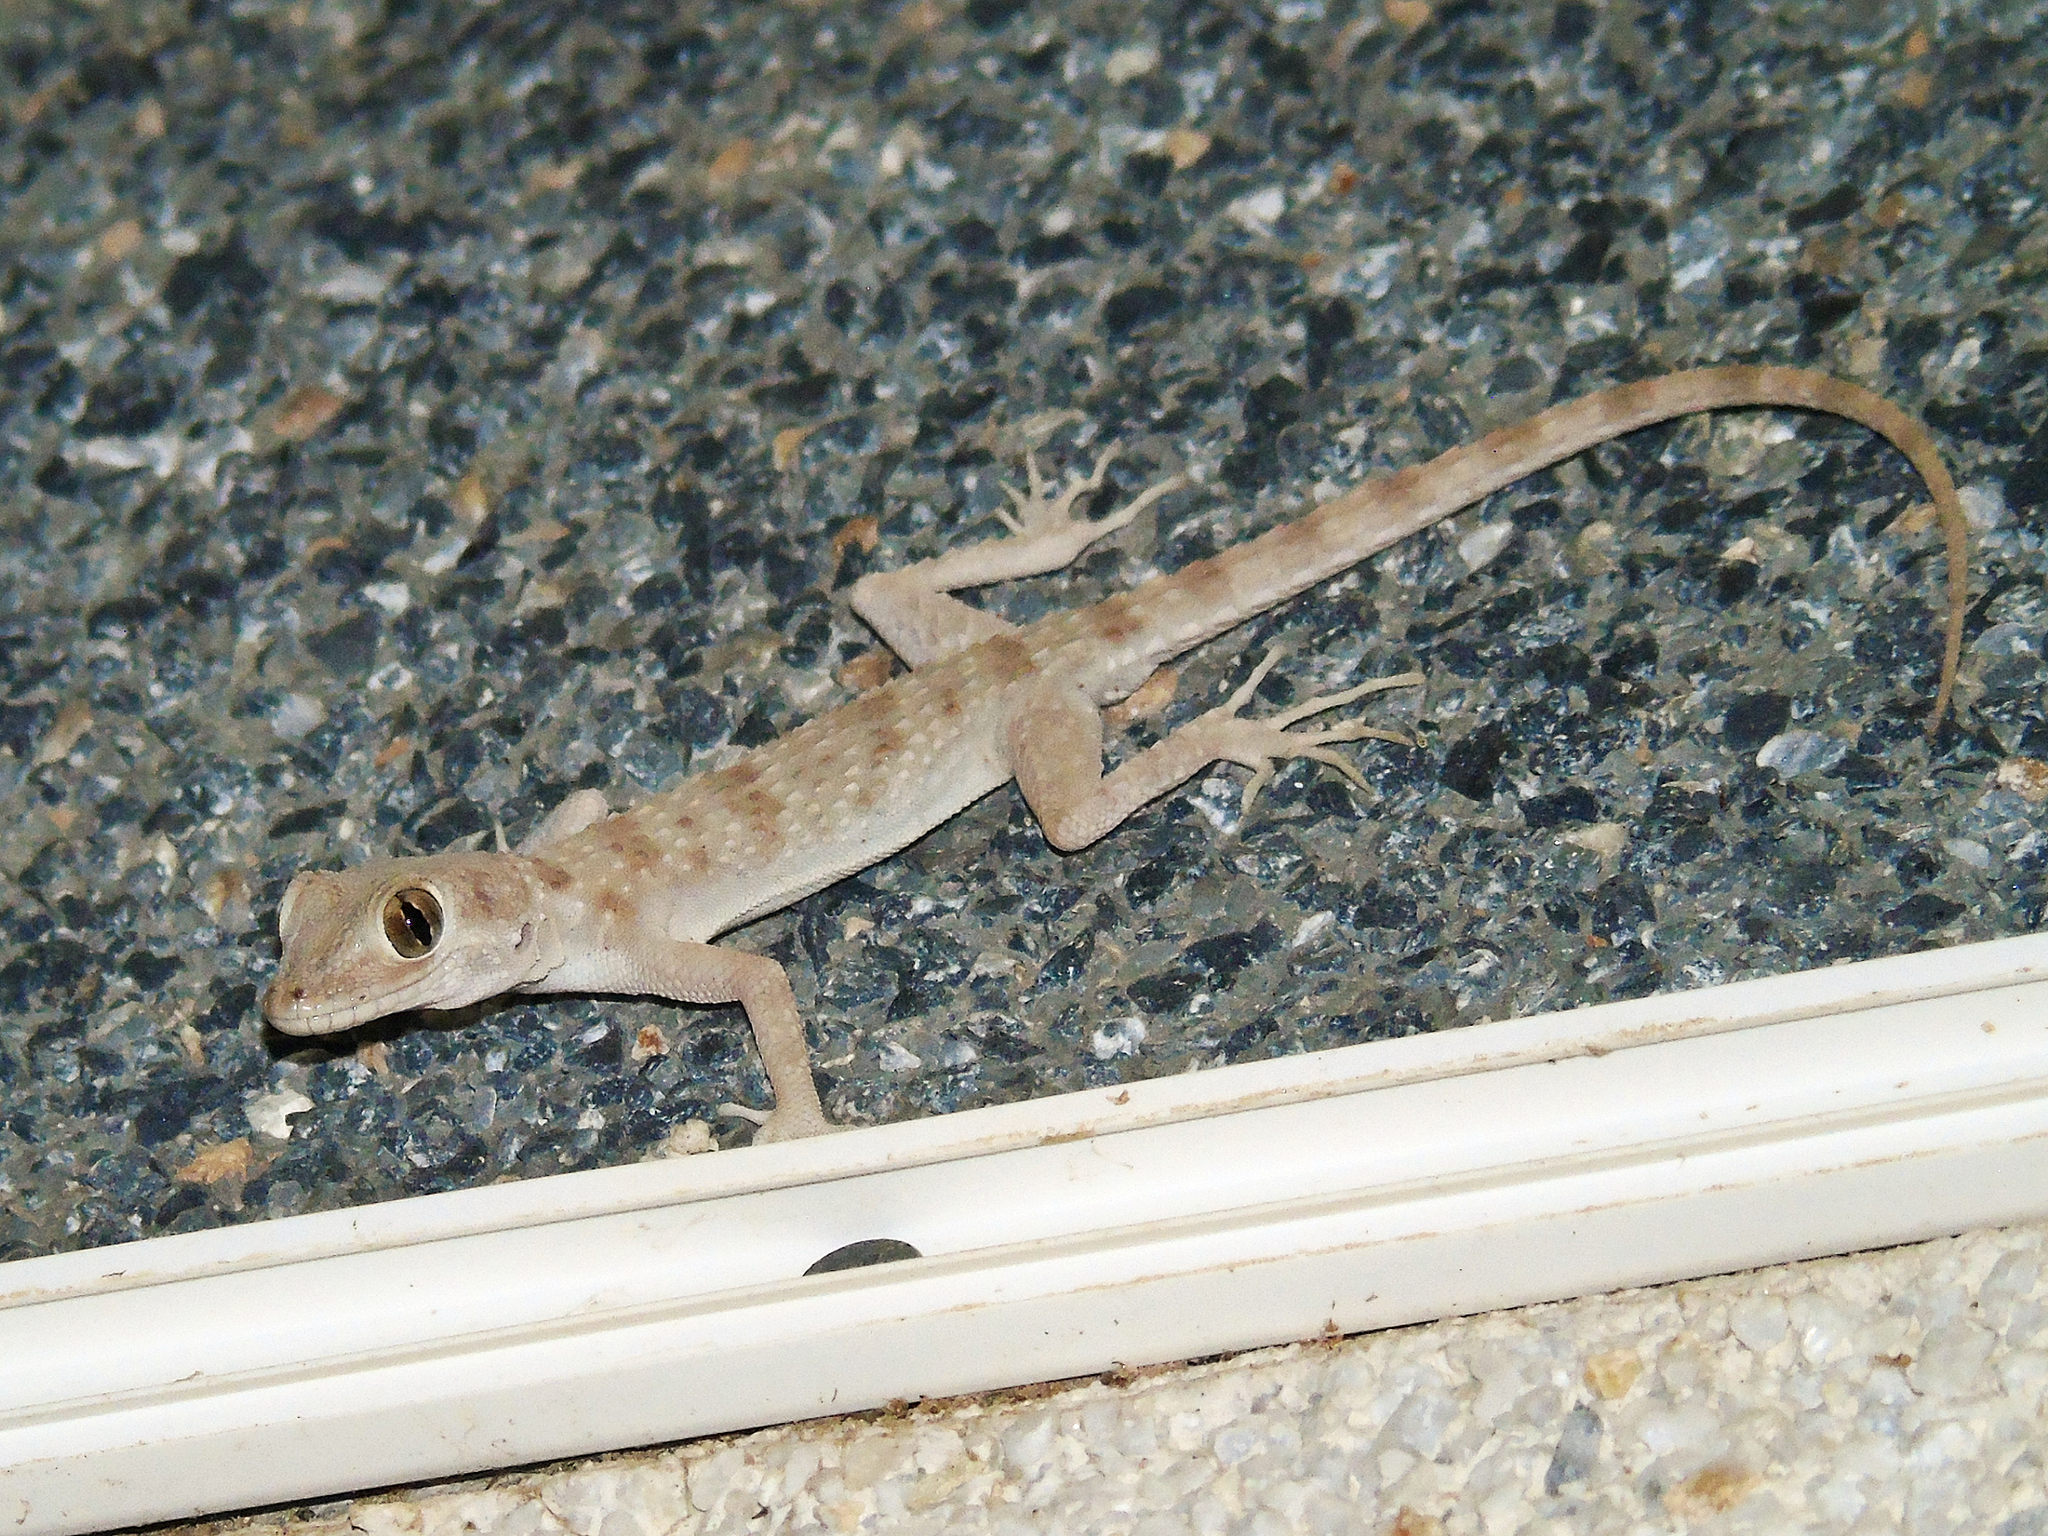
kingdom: Animalia
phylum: Chordata
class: Squamata
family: Gekkonidae
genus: Tenuidactylus
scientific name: Tenuidactylus bogdanovi
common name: Bogdanov’s thin-toed gecko
